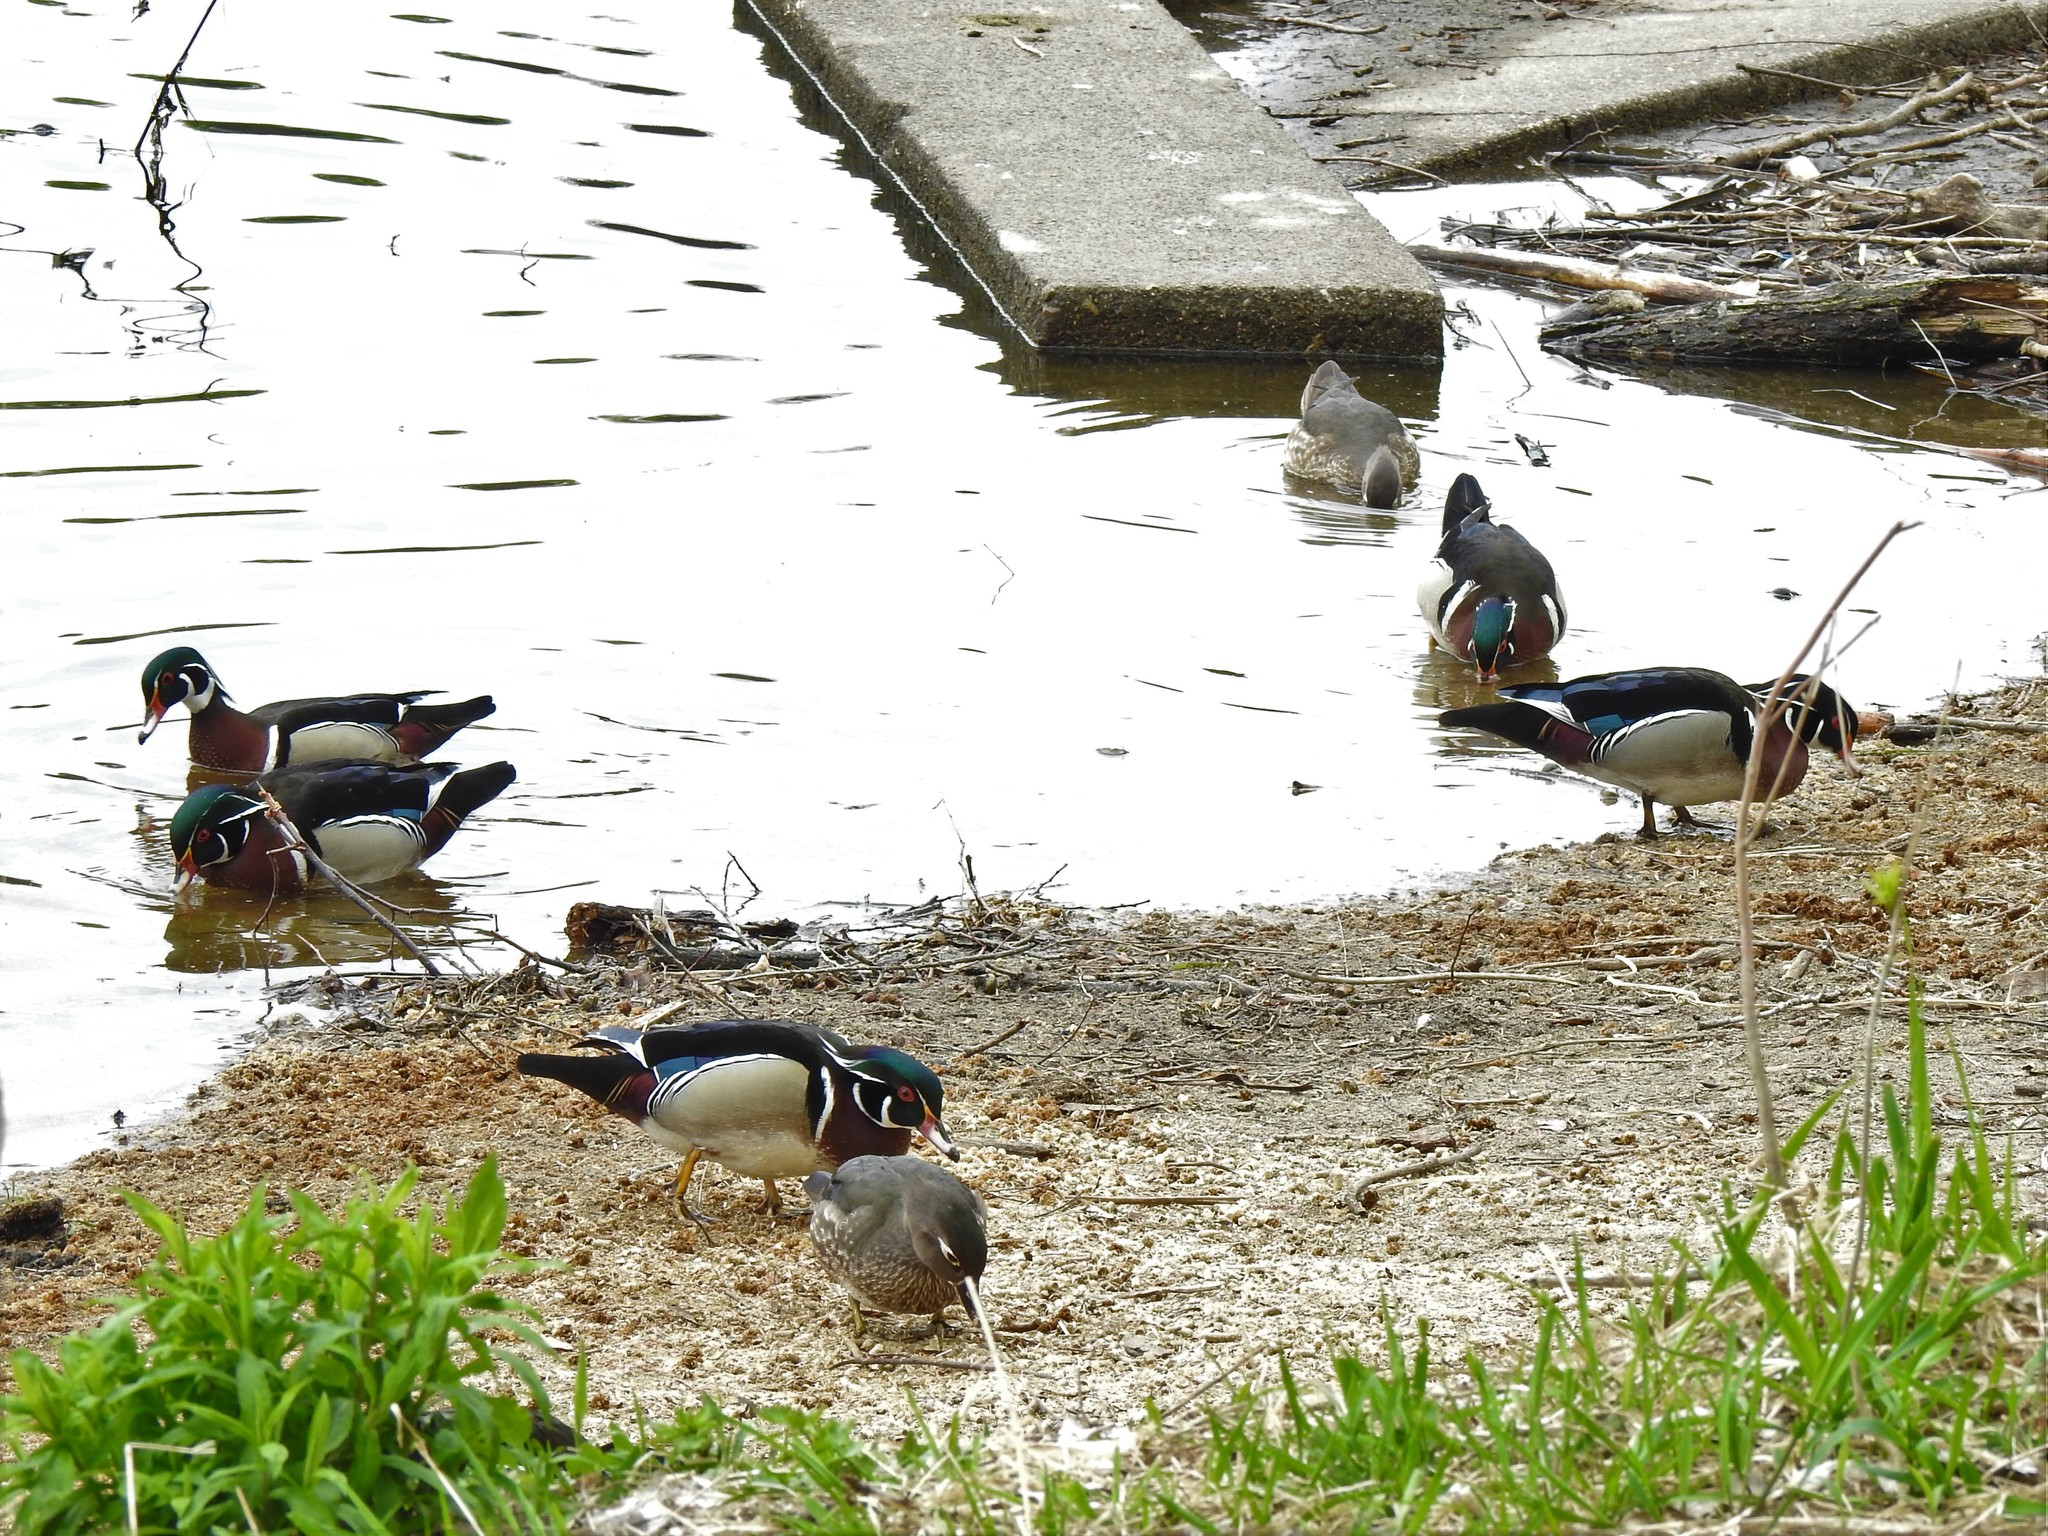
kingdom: Animalia
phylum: Chordata
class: Aves
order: Anseriformes
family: Anatidae
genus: Aix
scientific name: Aix sponsa
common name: Wood duck
